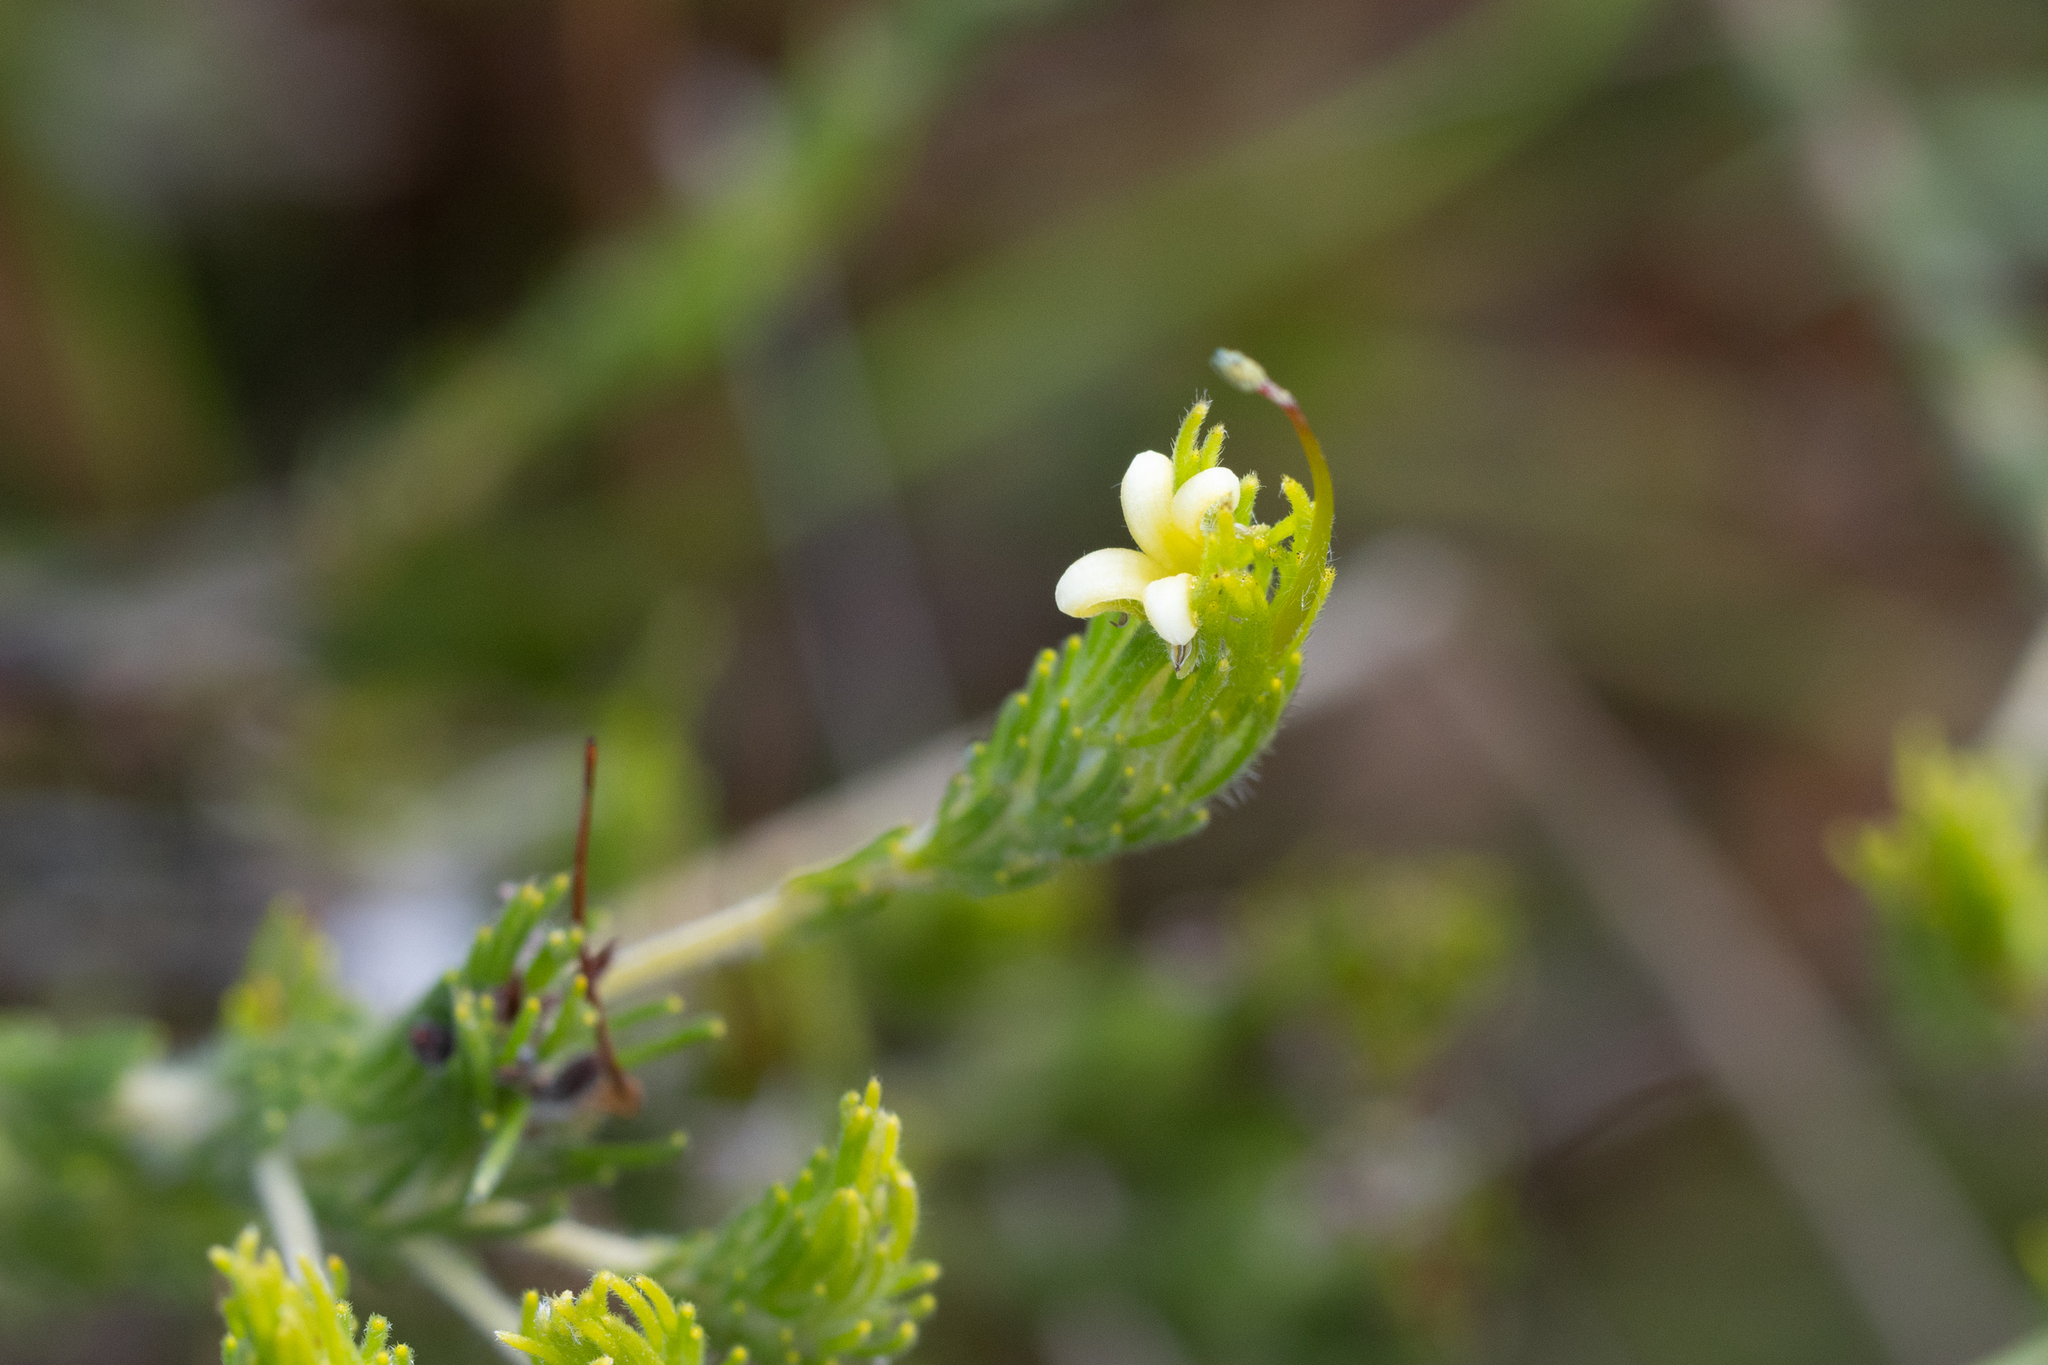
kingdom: Plantae
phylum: Tracheophyta
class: Magnoliopsida
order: Proteales
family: Proteaceae
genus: Adenanthos
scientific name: Adenanthos terminalis
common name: Yellow gland-flower
